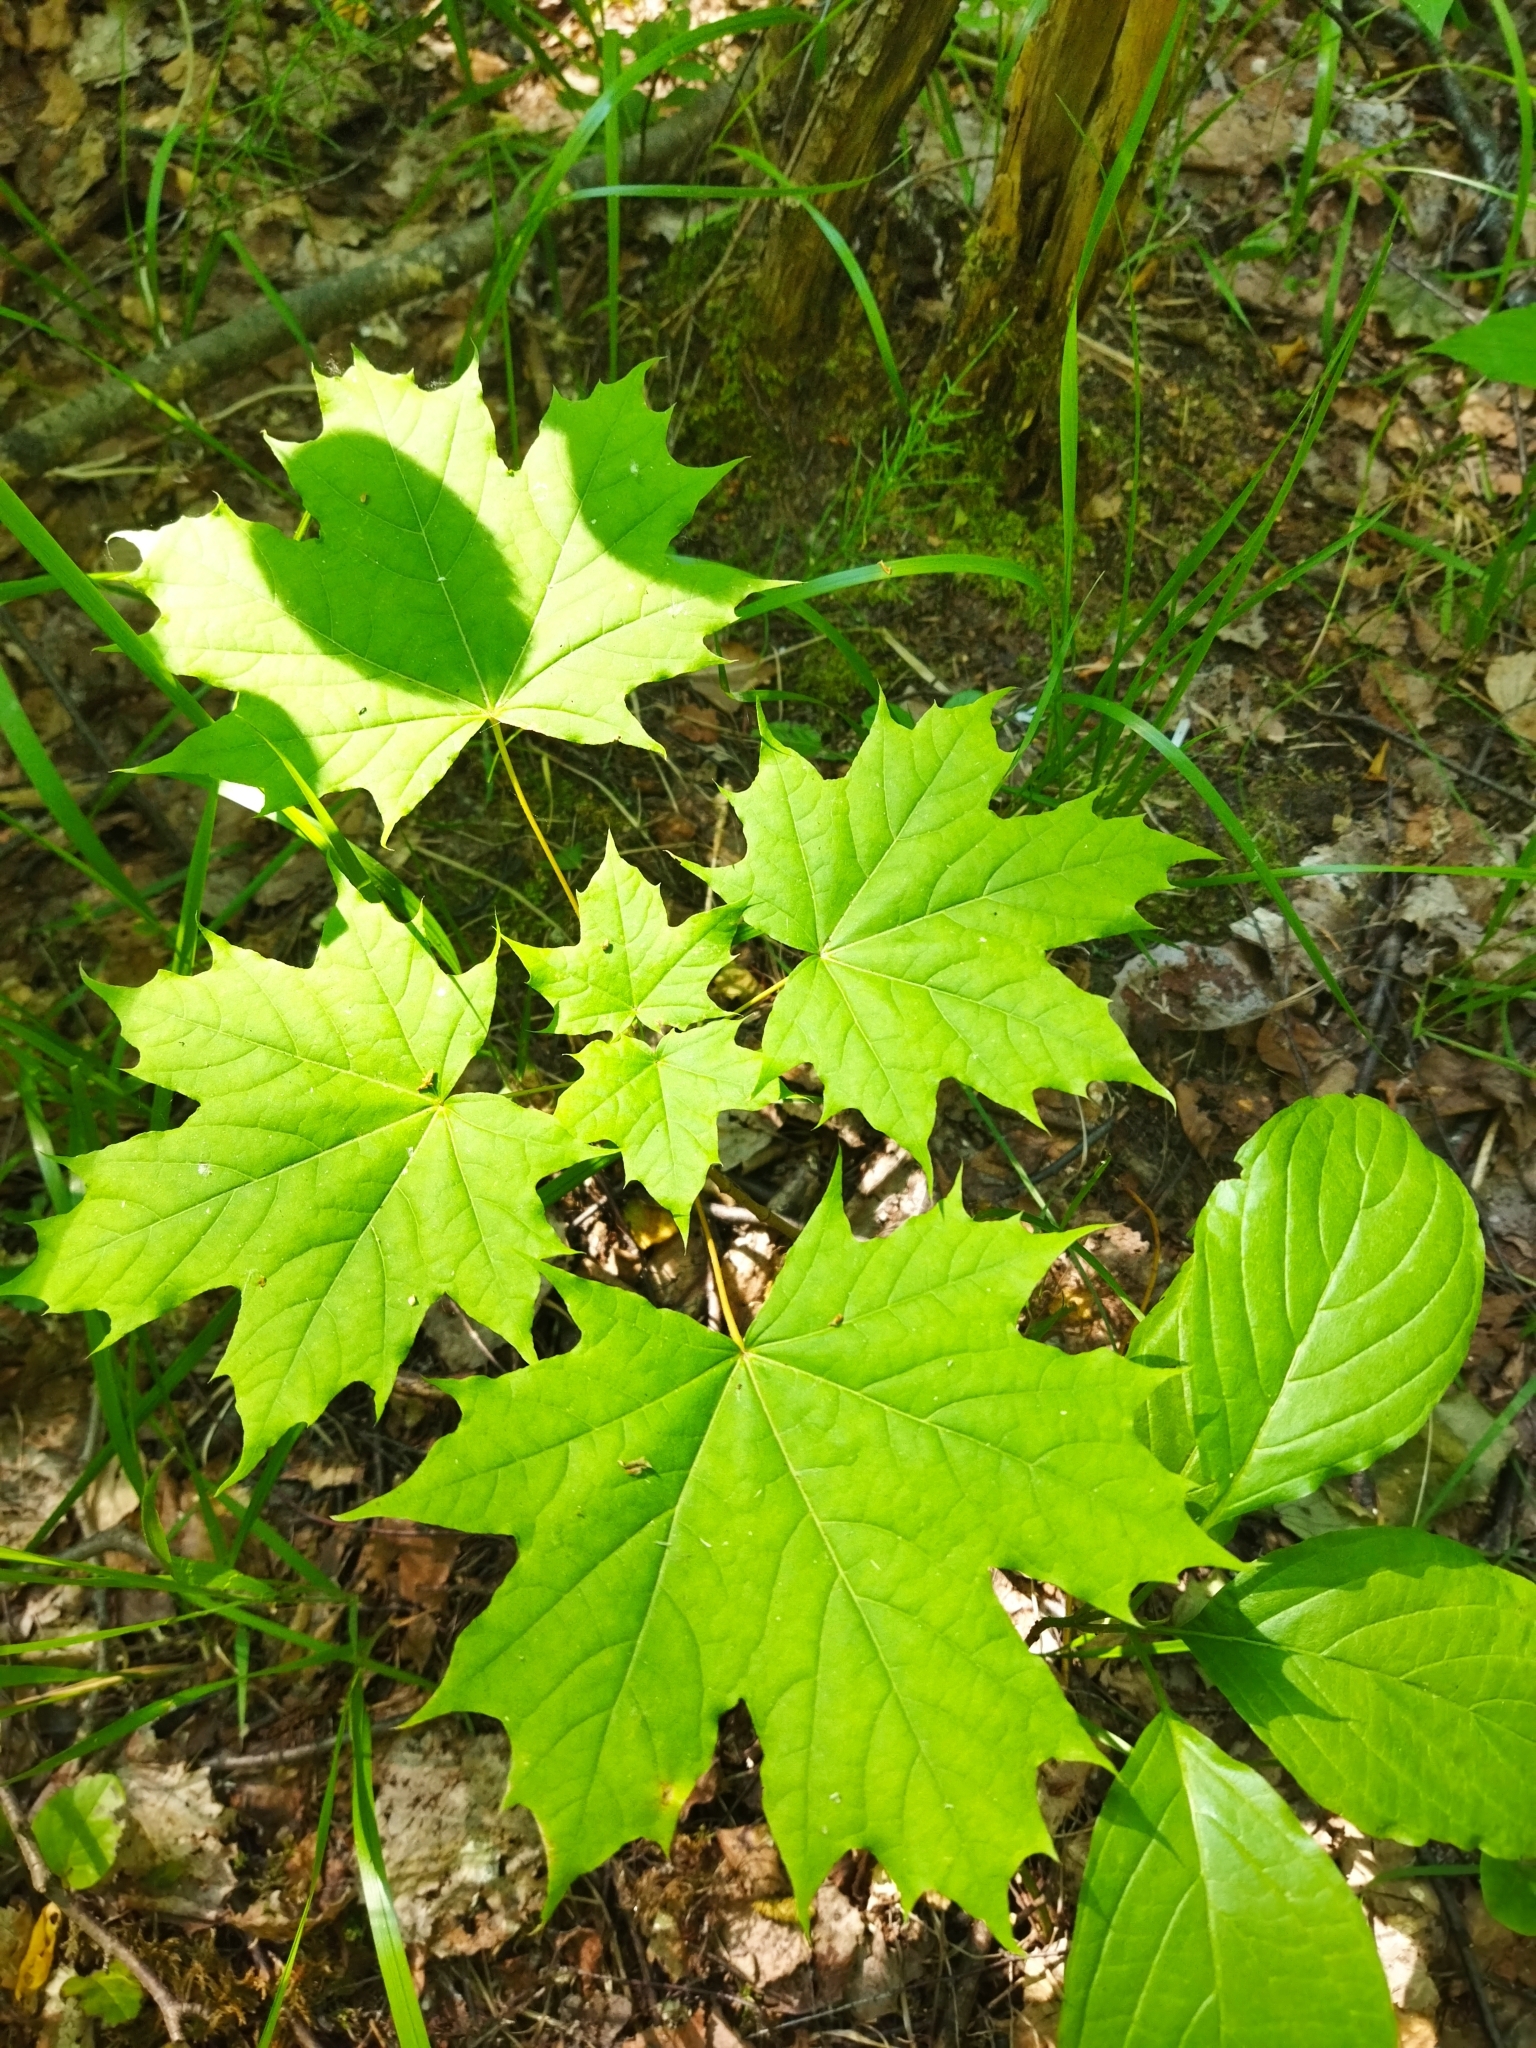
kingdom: Plantae
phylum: Tracheophyta
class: Magnoliopsida
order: Sapindales
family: Sapindaceae
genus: Acer
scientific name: Acer platanoides
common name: Norway maple
